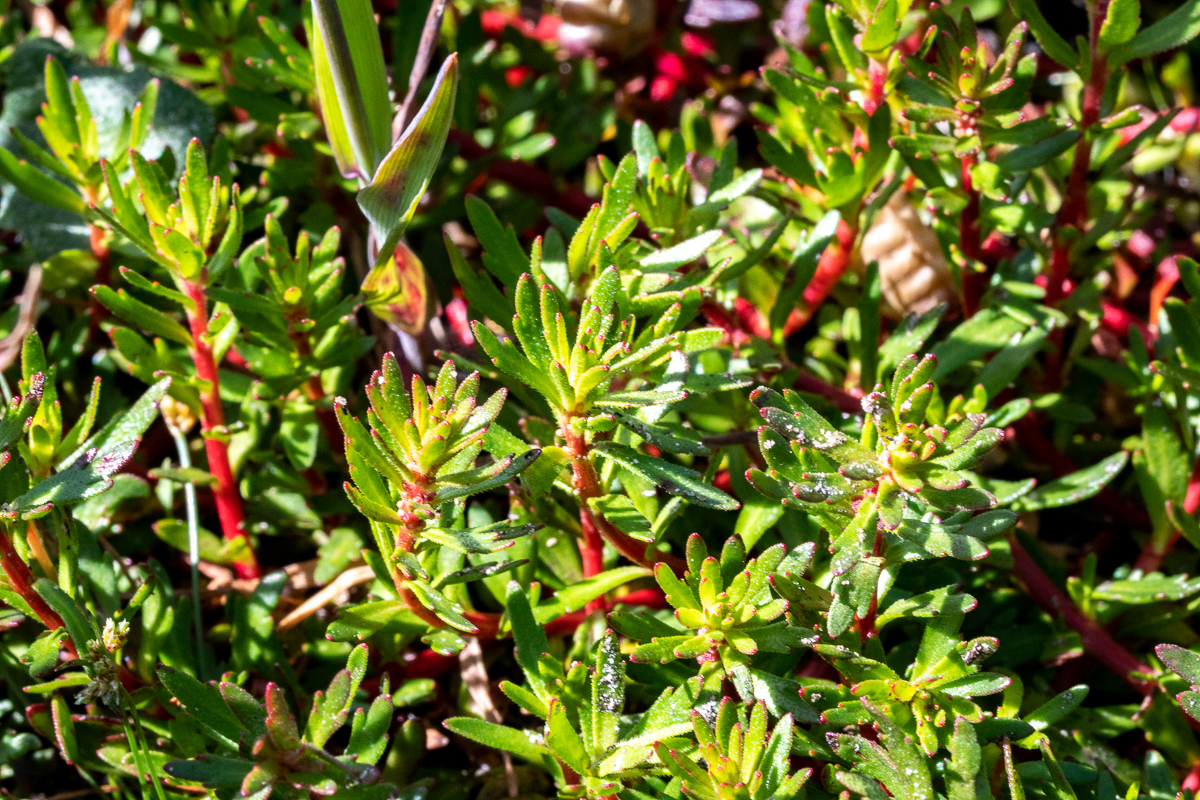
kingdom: Plantae
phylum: Tracheophyta
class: Magnoliopsida
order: Saxifragales
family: Haloragaceae
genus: Laurembergia
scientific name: Laurembergia repens
